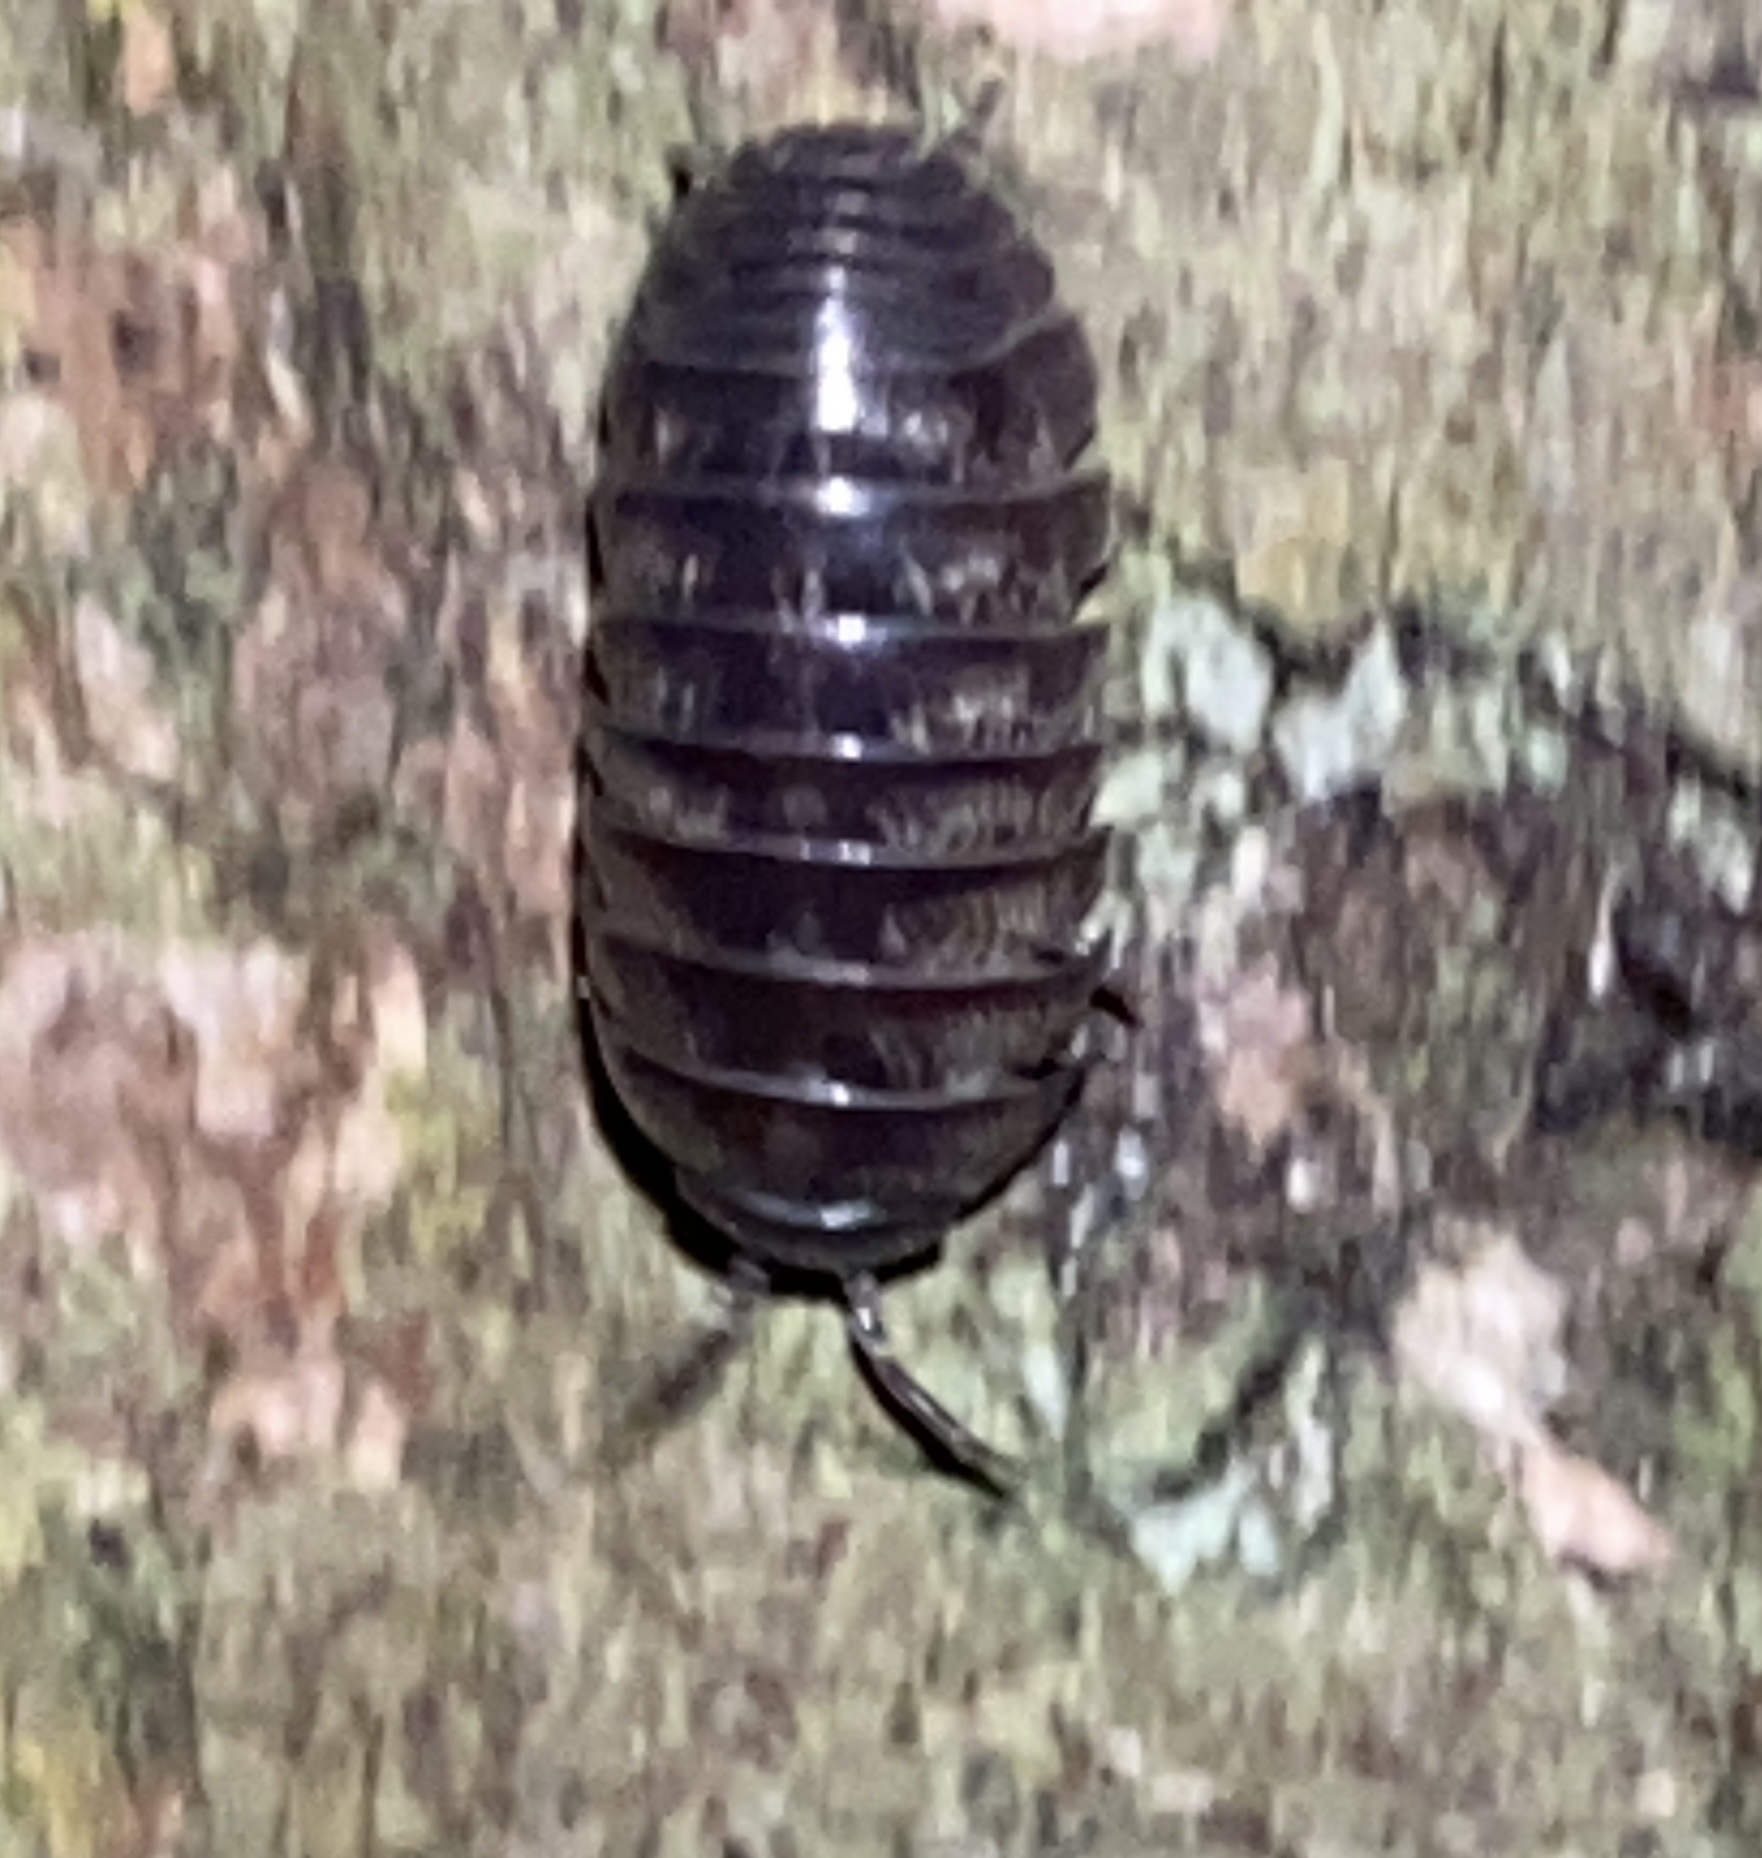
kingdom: Animalia
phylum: Arthropoda
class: Malacostraca
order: Isopoda
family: Armadillidiidae
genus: Armadillidium
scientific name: Armadillidium vulgare
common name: Common pill woodlouse
